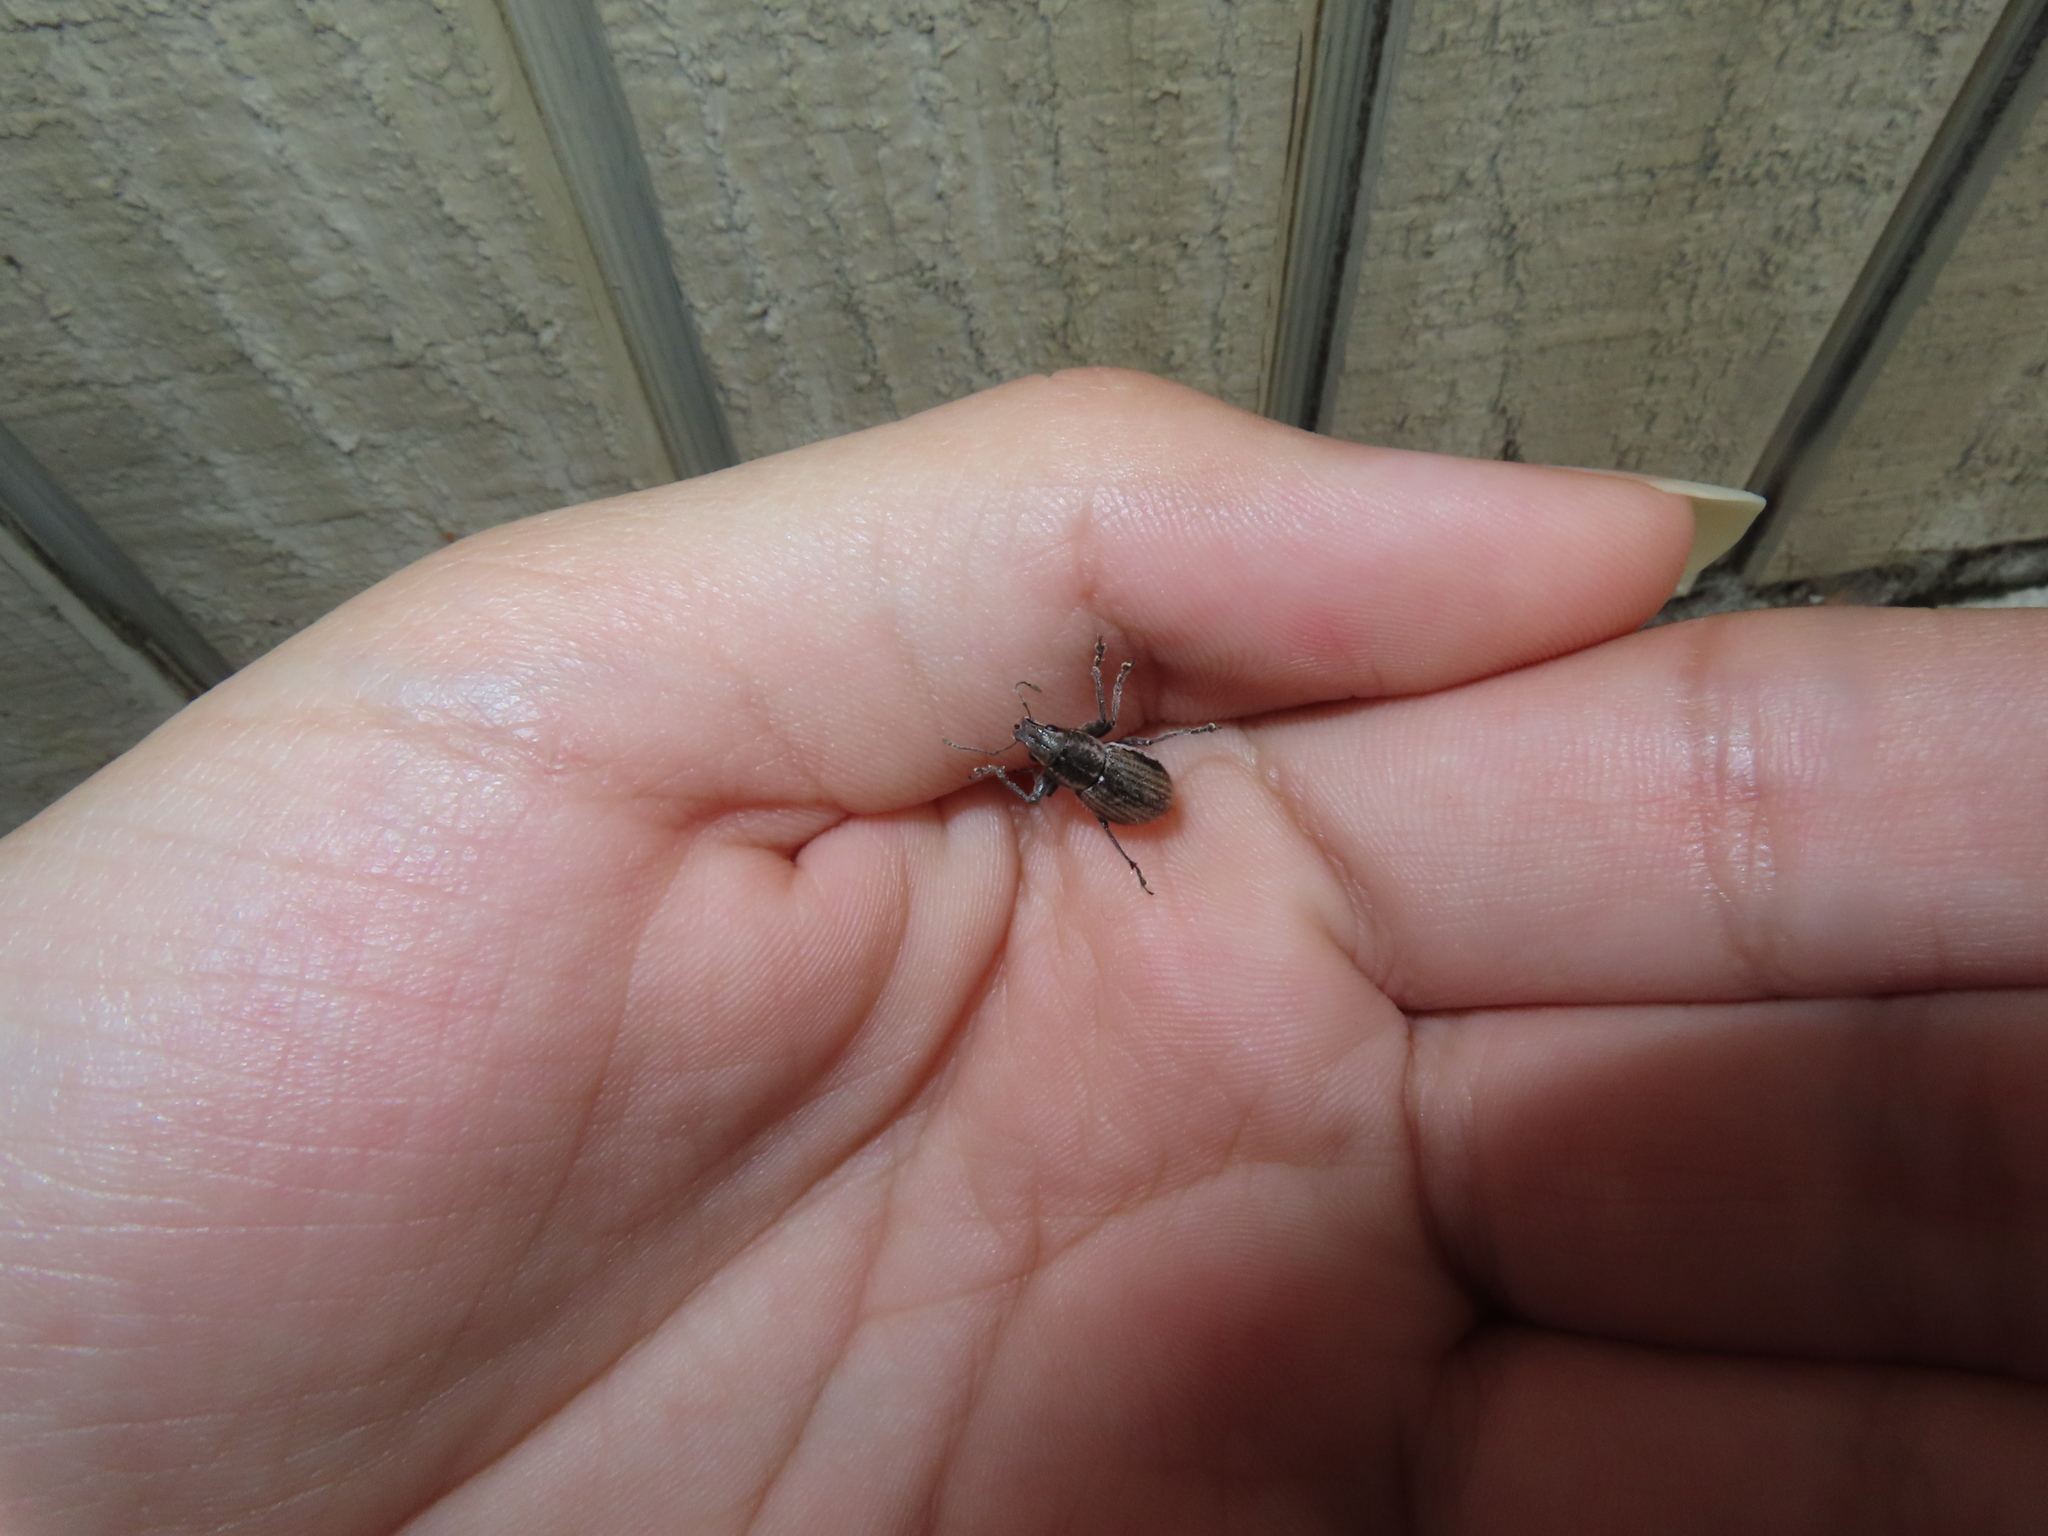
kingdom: Animalia
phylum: Arthropoda
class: Insecta
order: Coleoptera
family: Curculionidae
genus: Naupactus
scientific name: Naupactus leucoloma
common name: Whitefringed beetle
